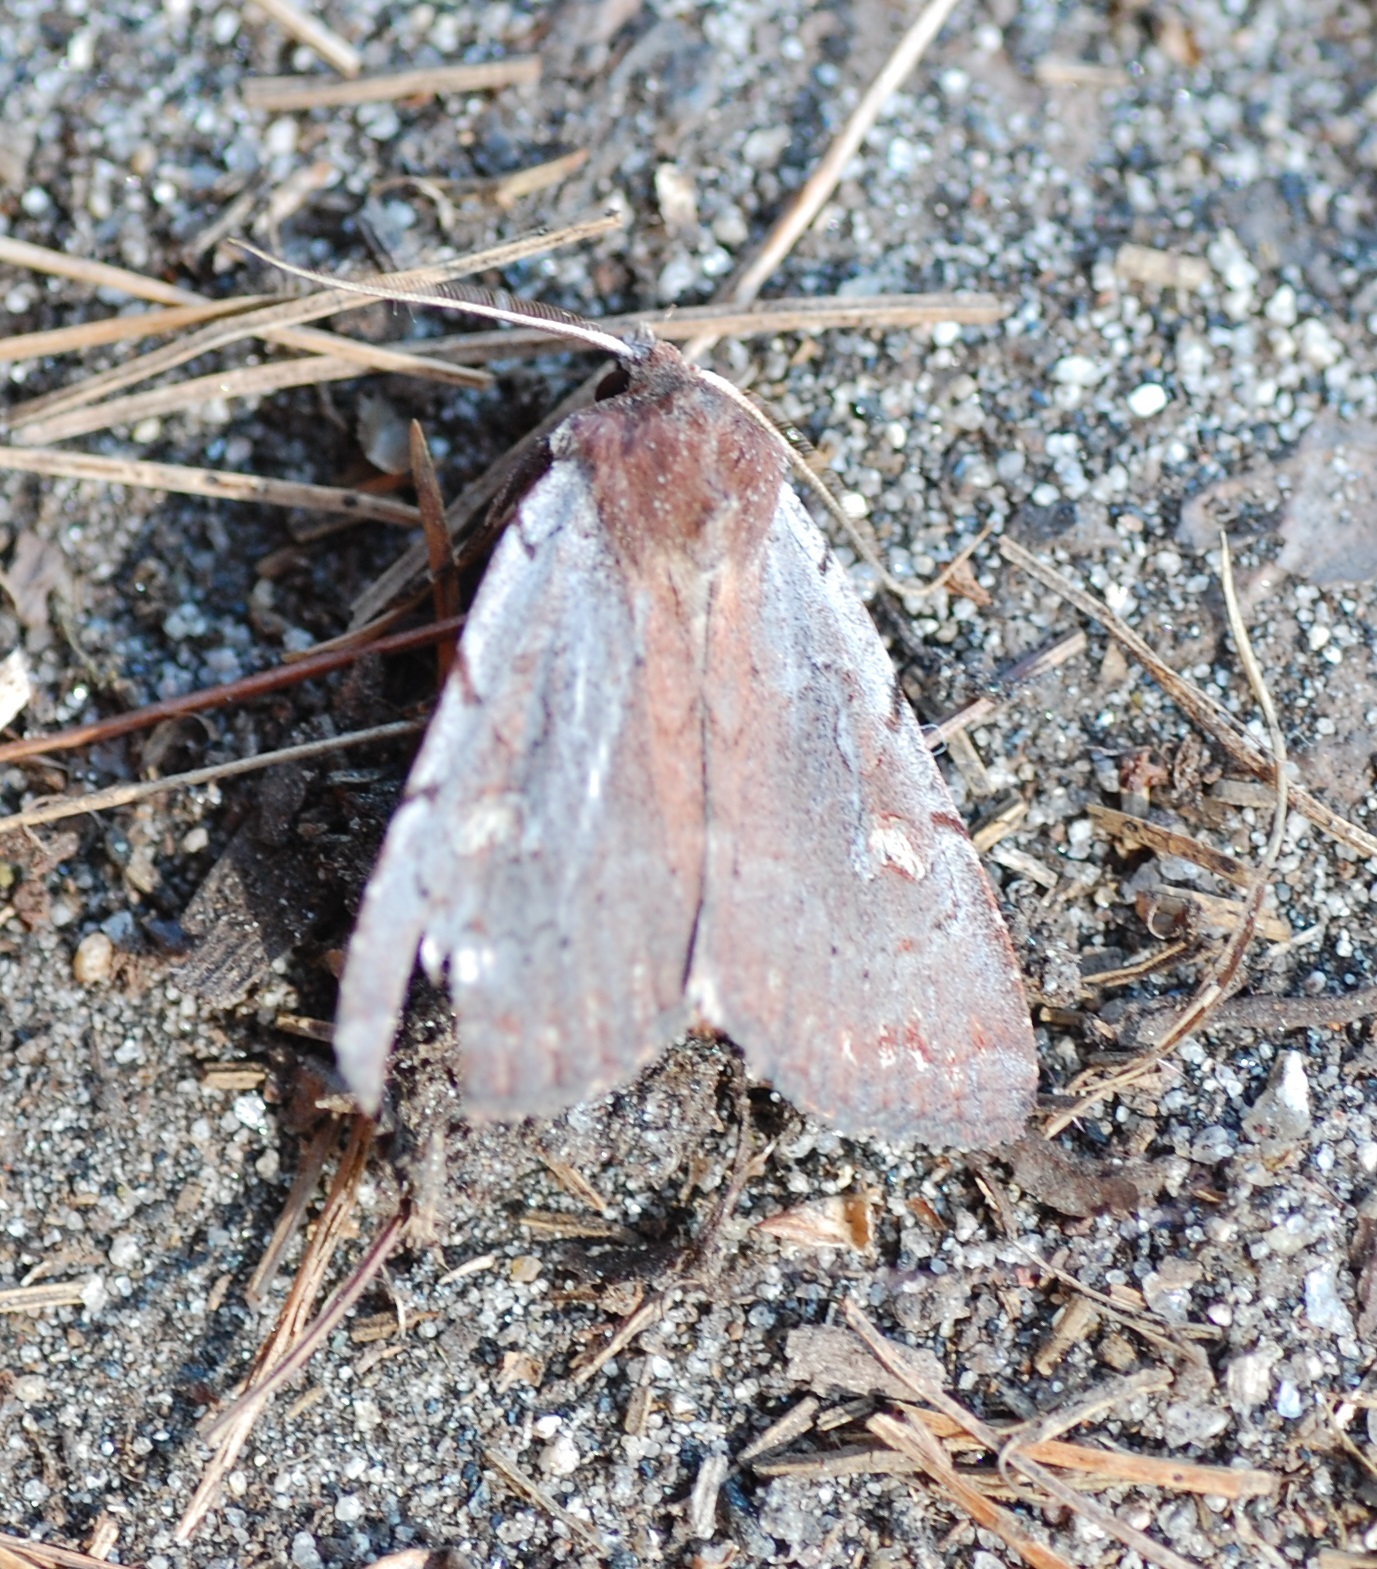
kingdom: Animalia
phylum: Arthropoda
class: Insecta
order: Lepidoptera
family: Noctuidae
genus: Xestia
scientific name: Xestia dilucida
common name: Dull reddish dart
